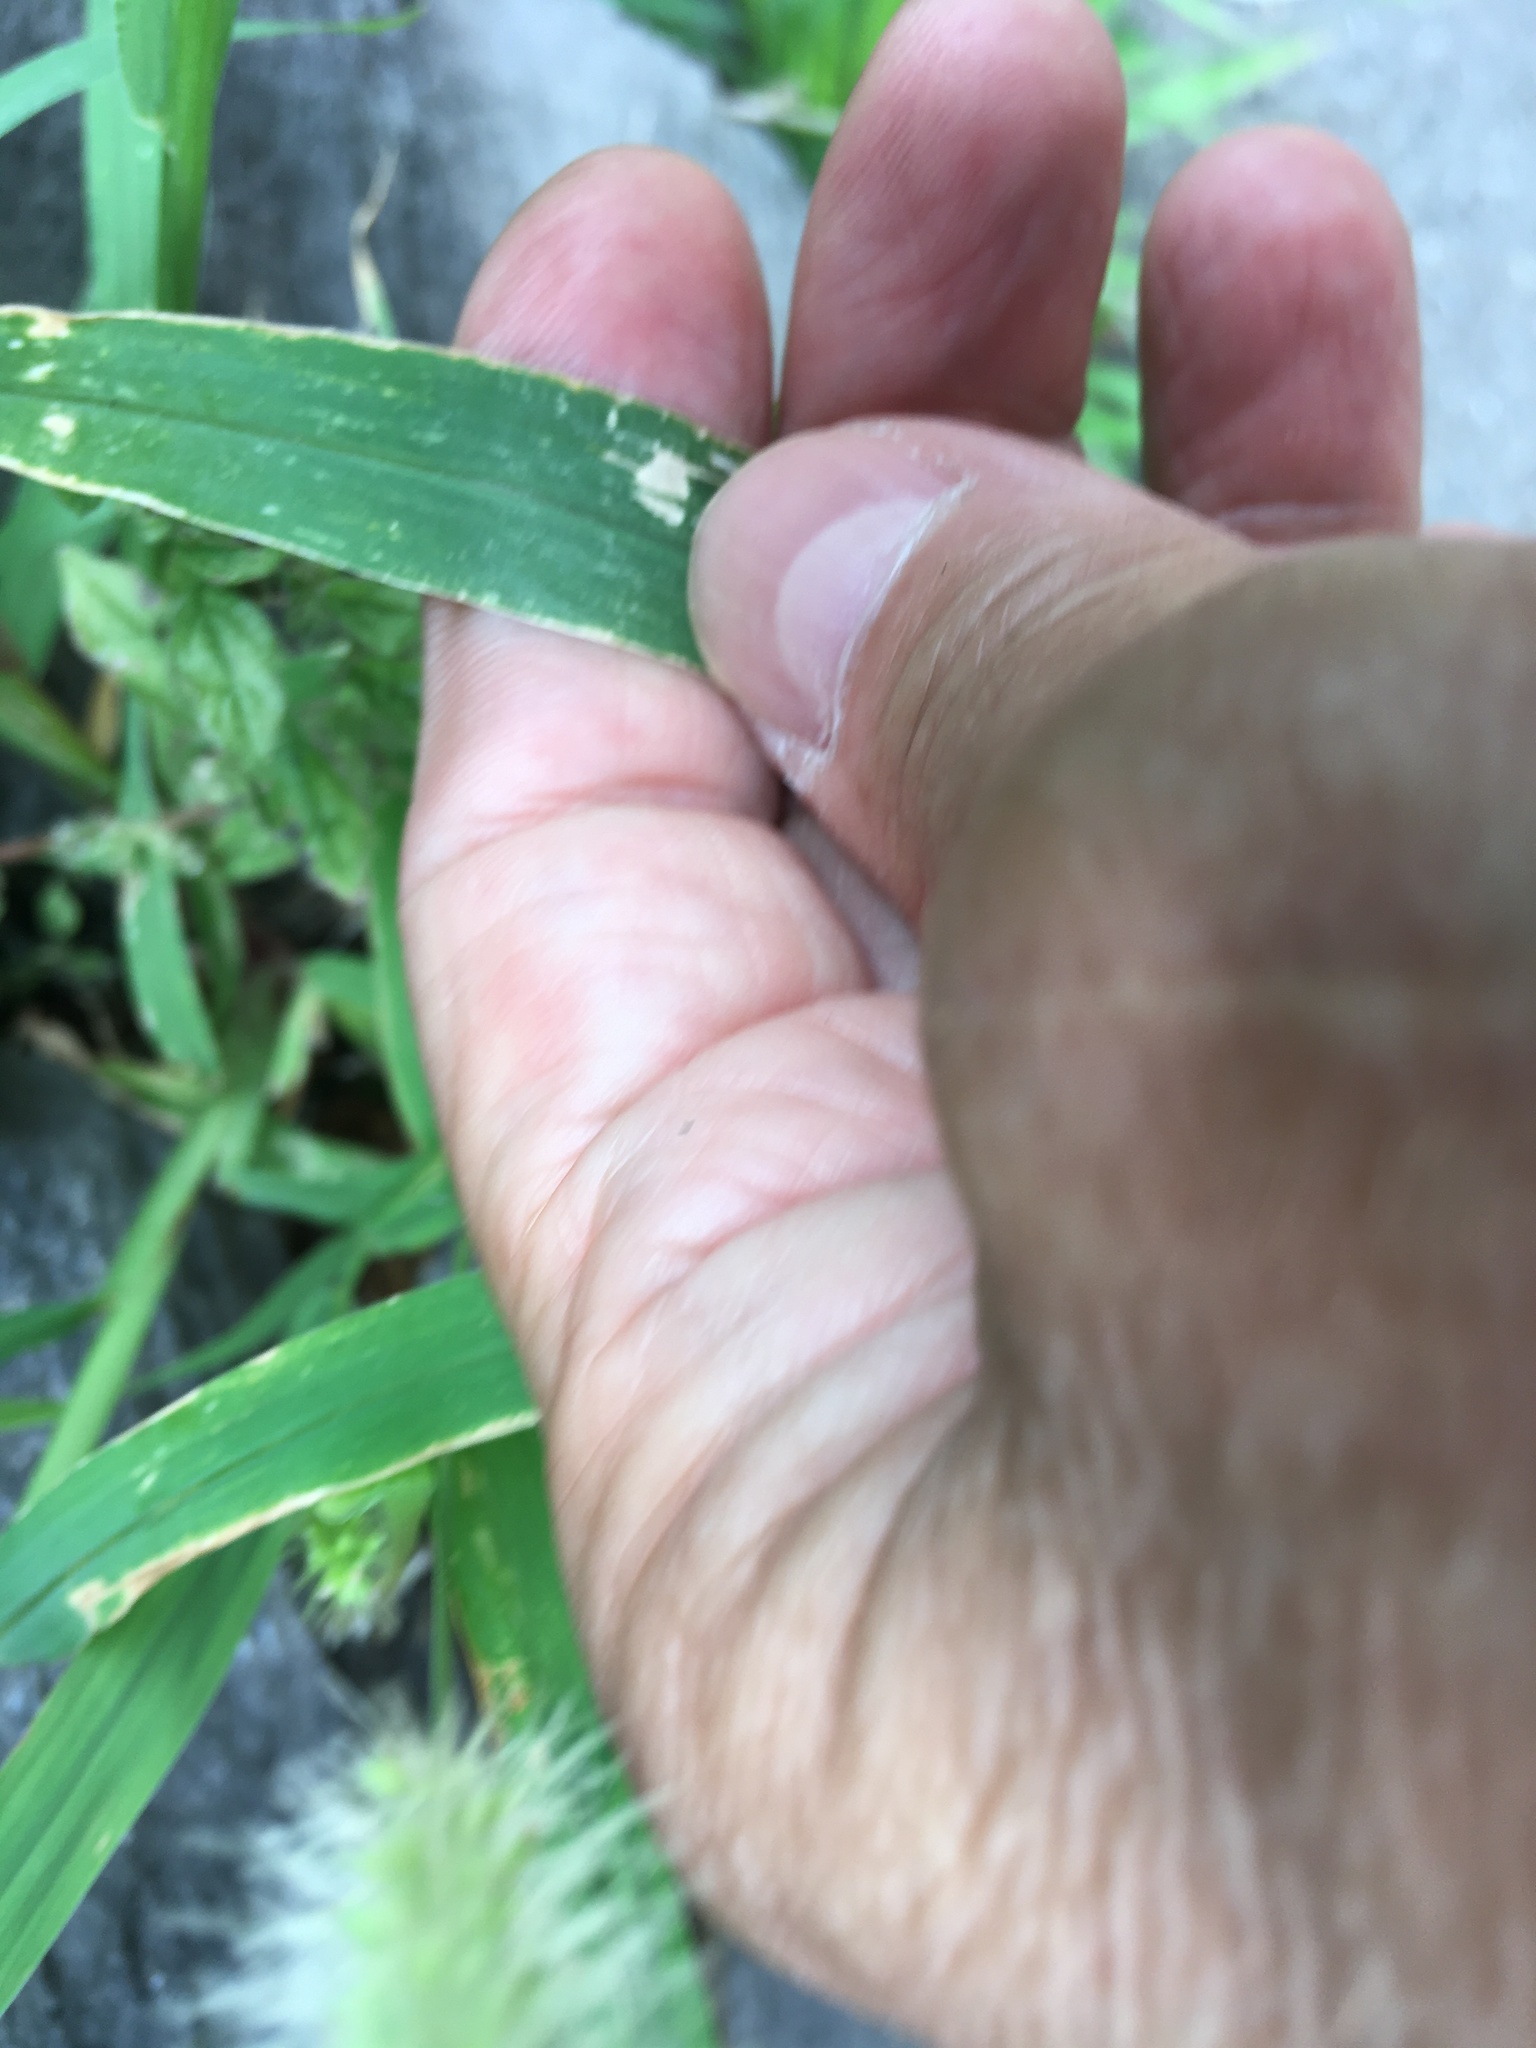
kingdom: Plantae
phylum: Tracheophyta
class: Liliopsida
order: Poales
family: Poaceae
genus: Setaria
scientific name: Setaria viridis
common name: Green bristlegrass
